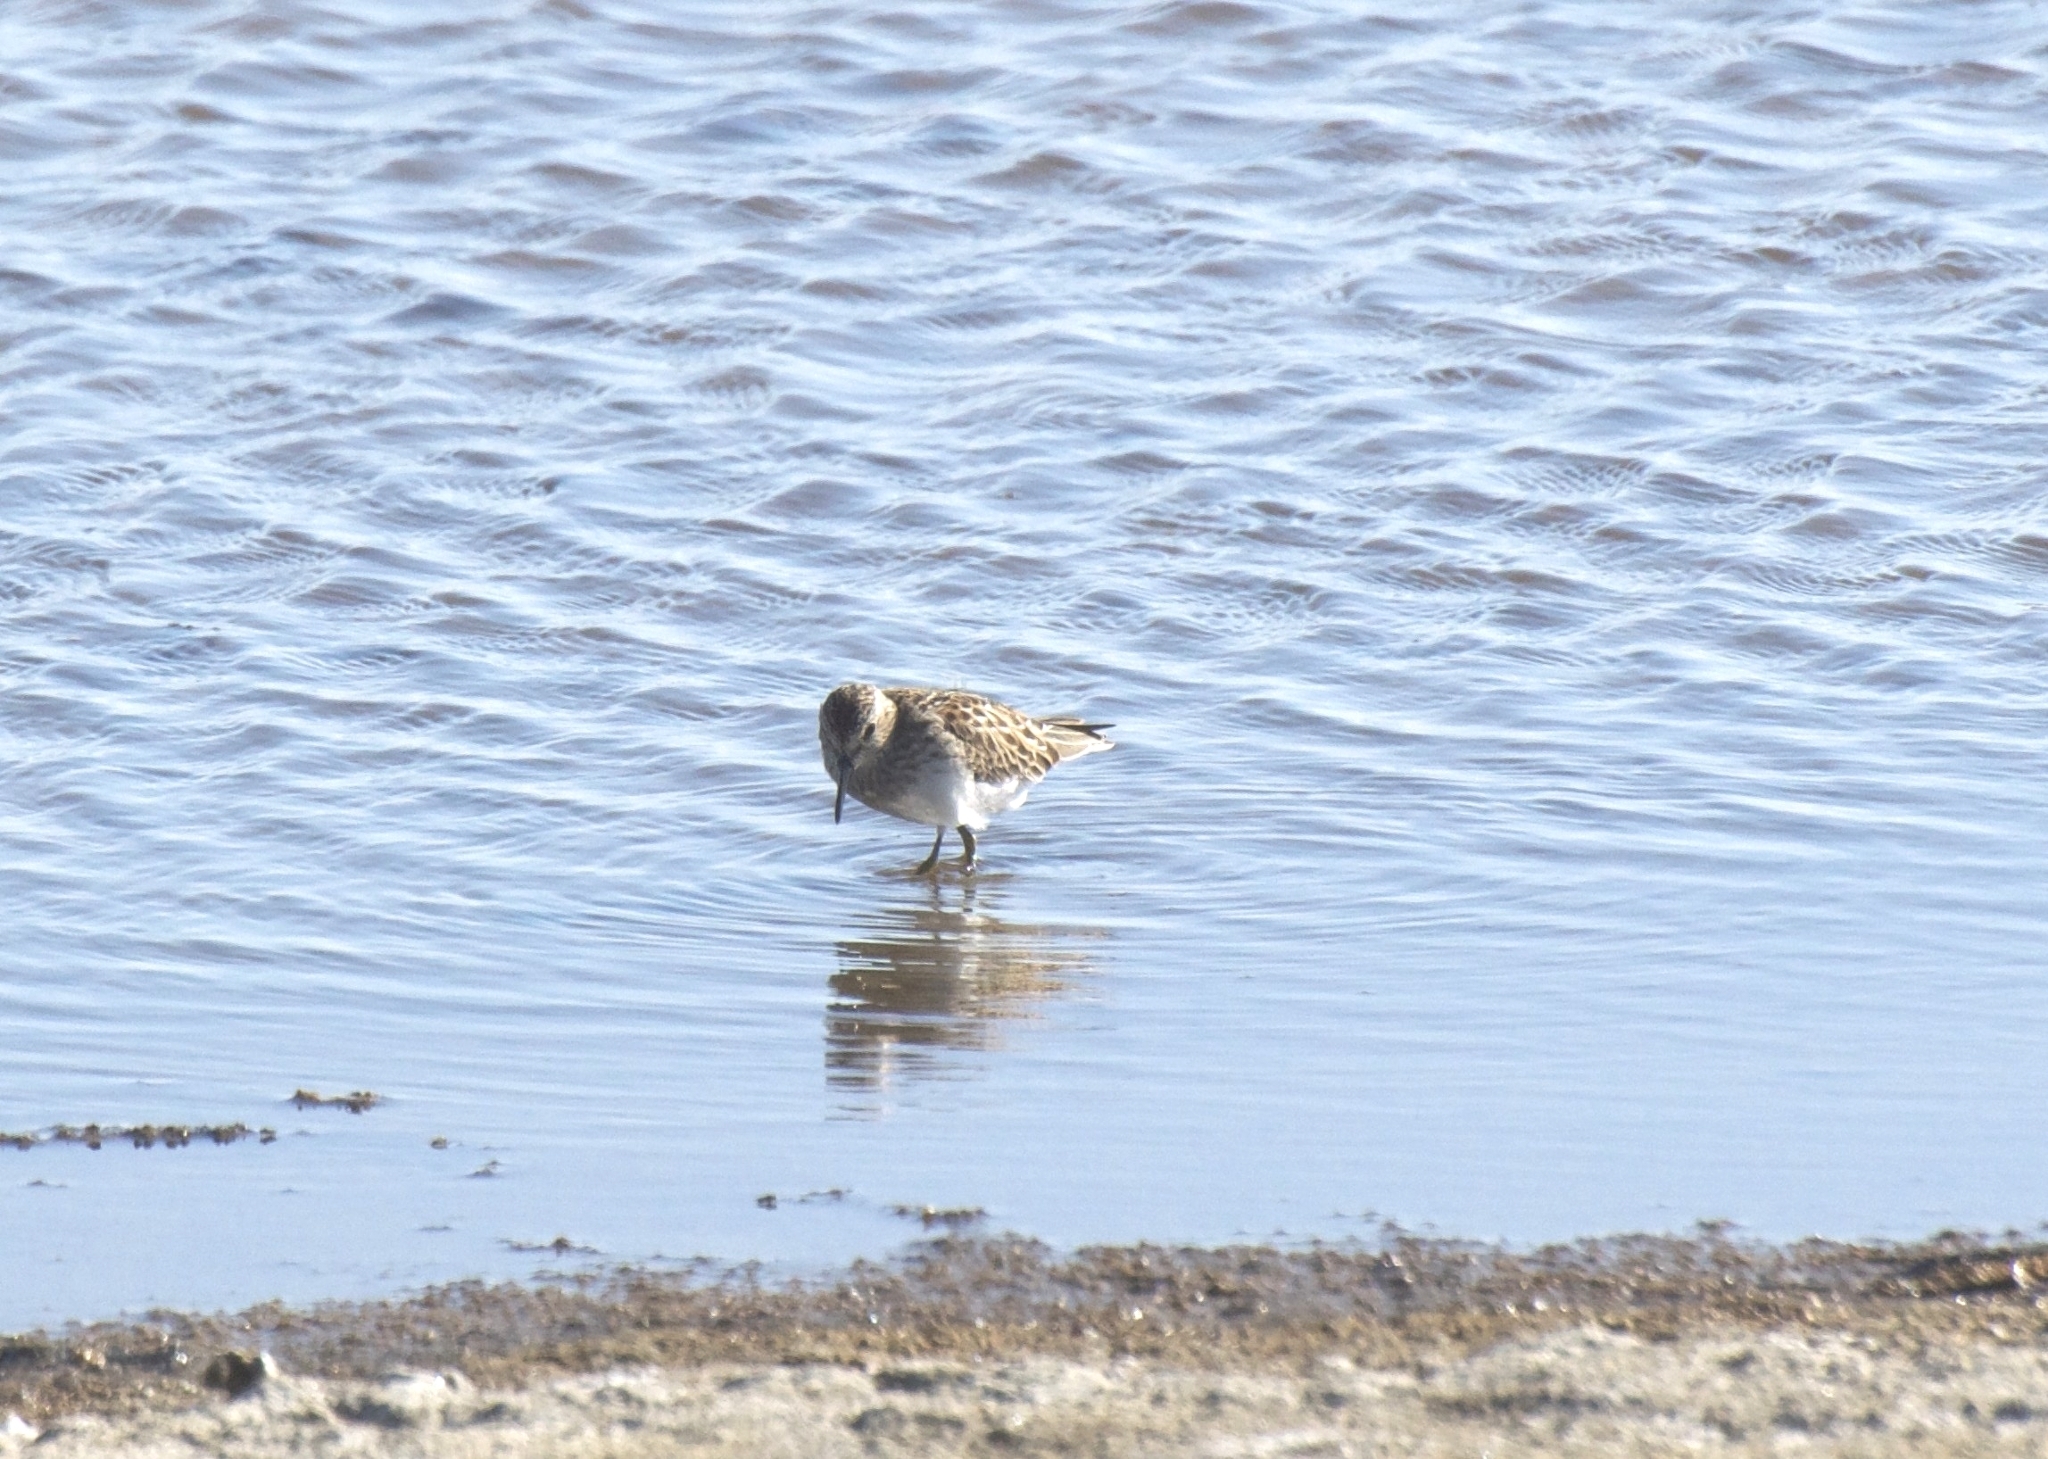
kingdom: Animalia
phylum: Chordata
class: Aves
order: Charadriiformes
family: Scolopacidae
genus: Calidris
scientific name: Calidris minutilla
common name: Least sandpiper
